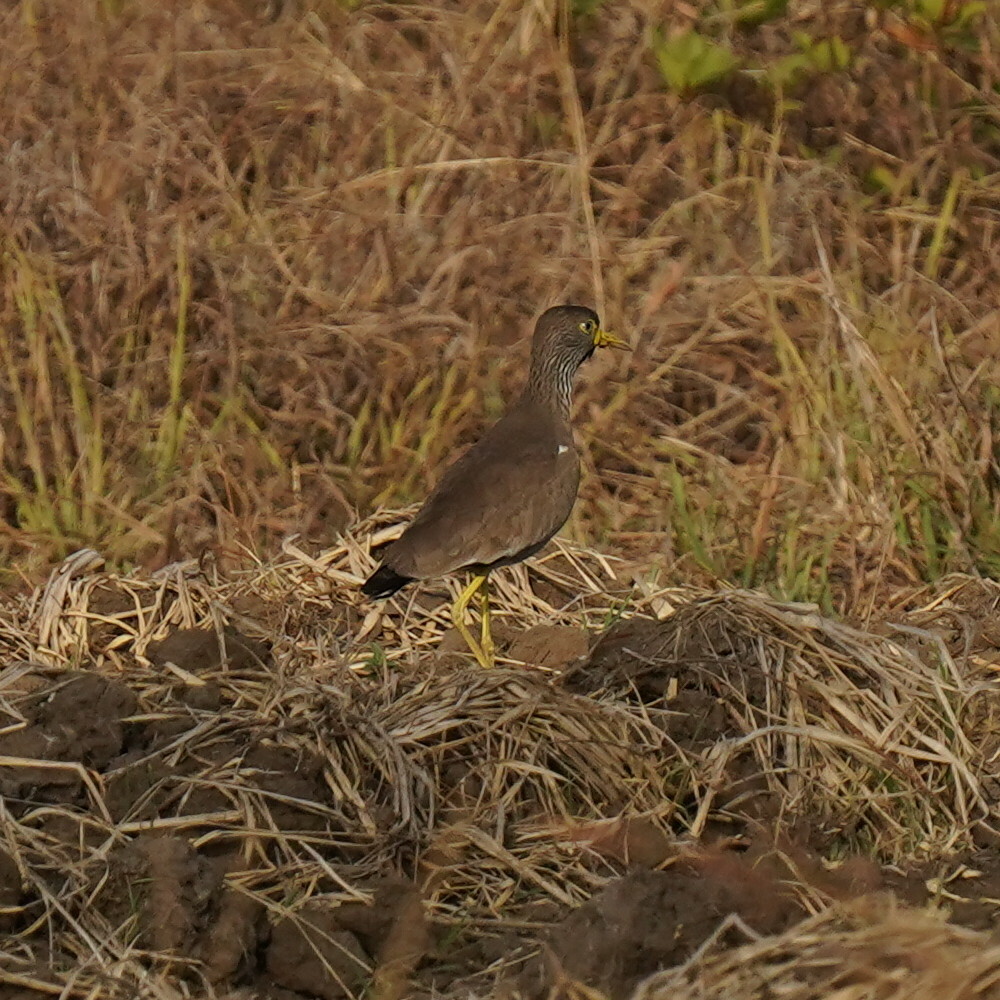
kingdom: Animalia
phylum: Chordata
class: Aves
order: Charadriiformes
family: Charadriidae
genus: Vanellus
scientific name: Vanellus senegallus
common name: African wattled lapwing
